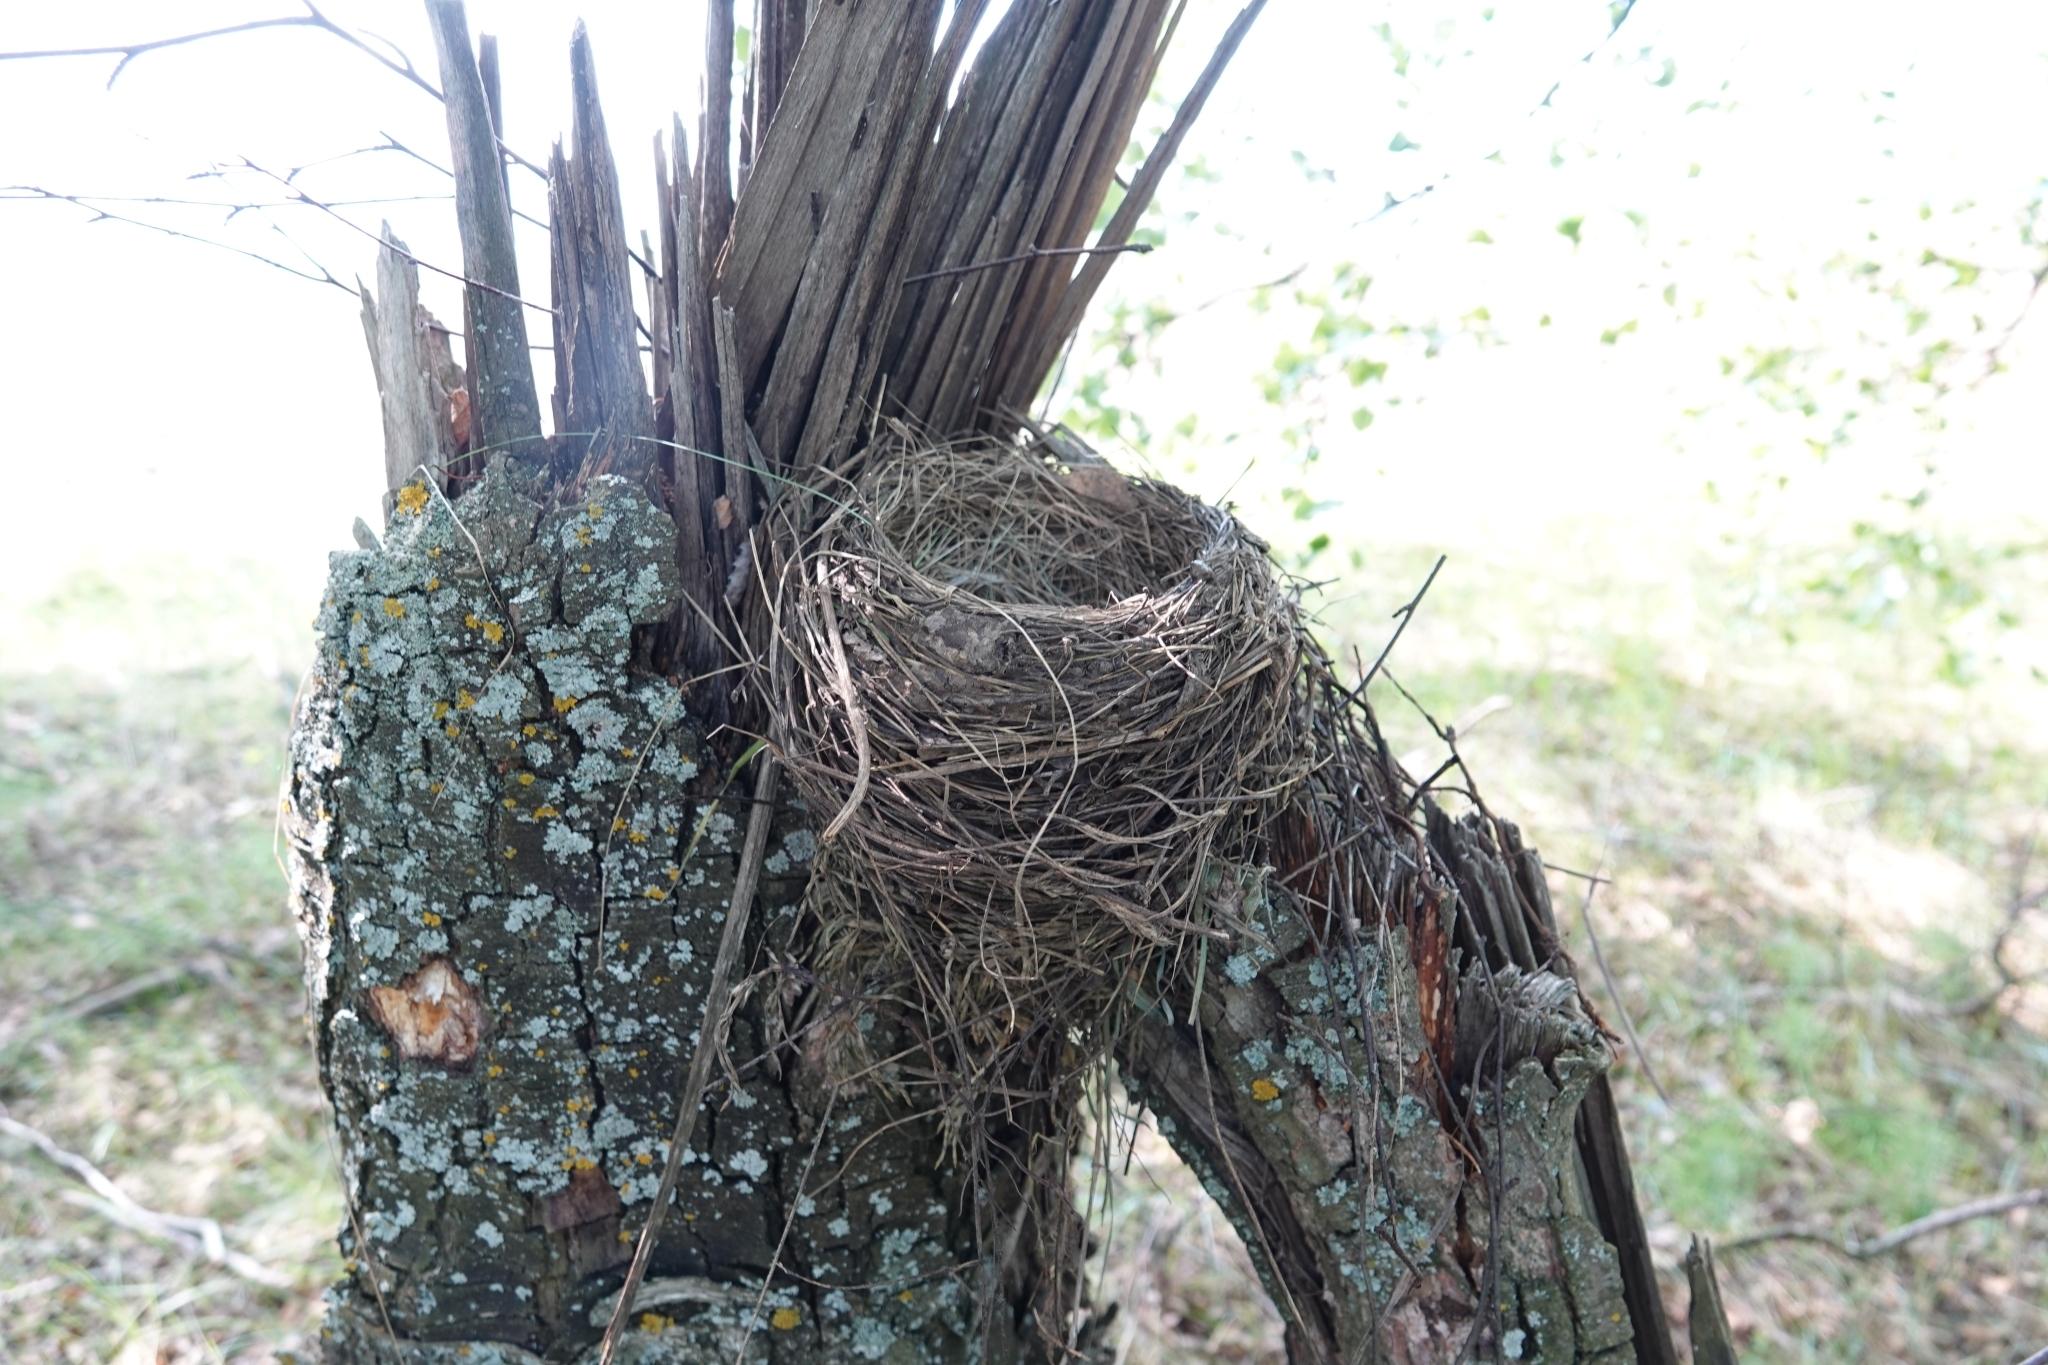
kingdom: Animalia
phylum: Chordata
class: Aves
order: Passeriformes
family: Turdidae
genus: Turdus
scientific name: Turdus pilaris
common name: Fieldfare
